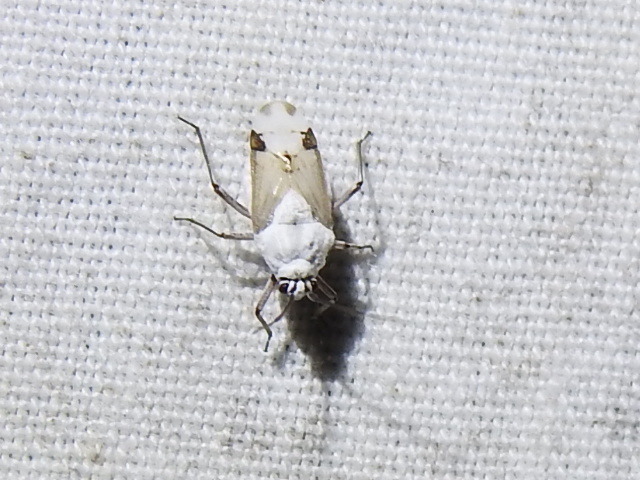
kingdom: Animalia
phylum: Arthropoda
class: Insecta
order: Hemiptera
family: Miridae
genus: Clivinema
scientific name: Clivinema
